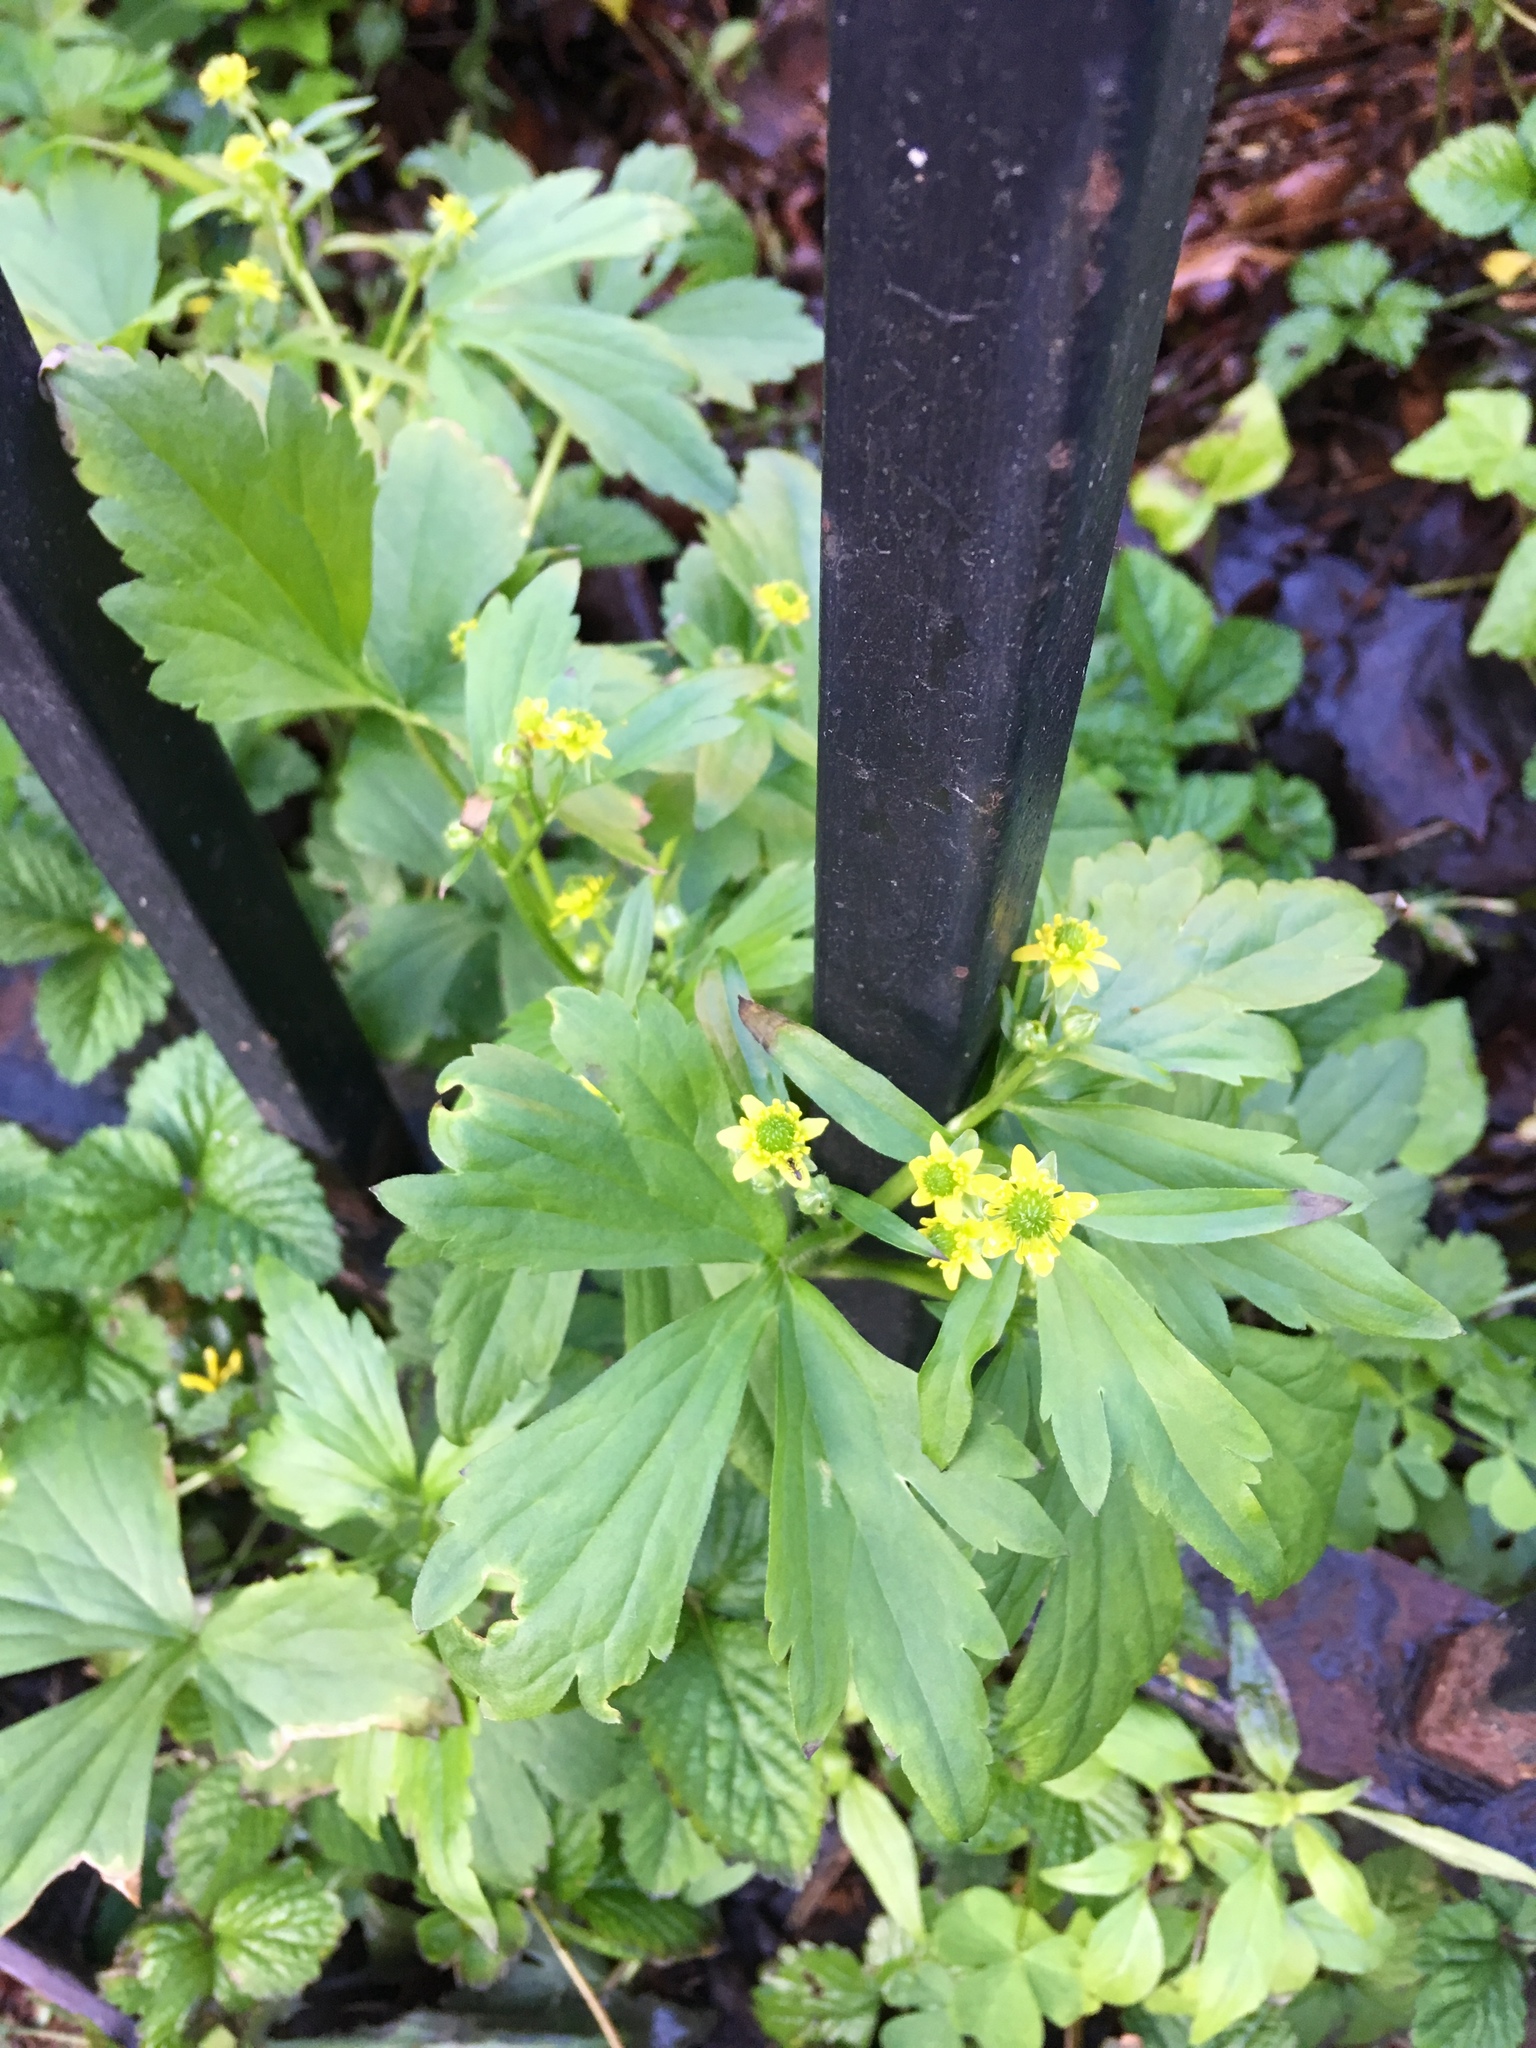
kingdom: Plantae
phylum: Tracheophyta
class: Magnoliopsida
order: Ranunculales
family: Ranunculaceae
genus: Ranunculus
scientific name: Ranunculus recurvatus
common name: Blisterwort
